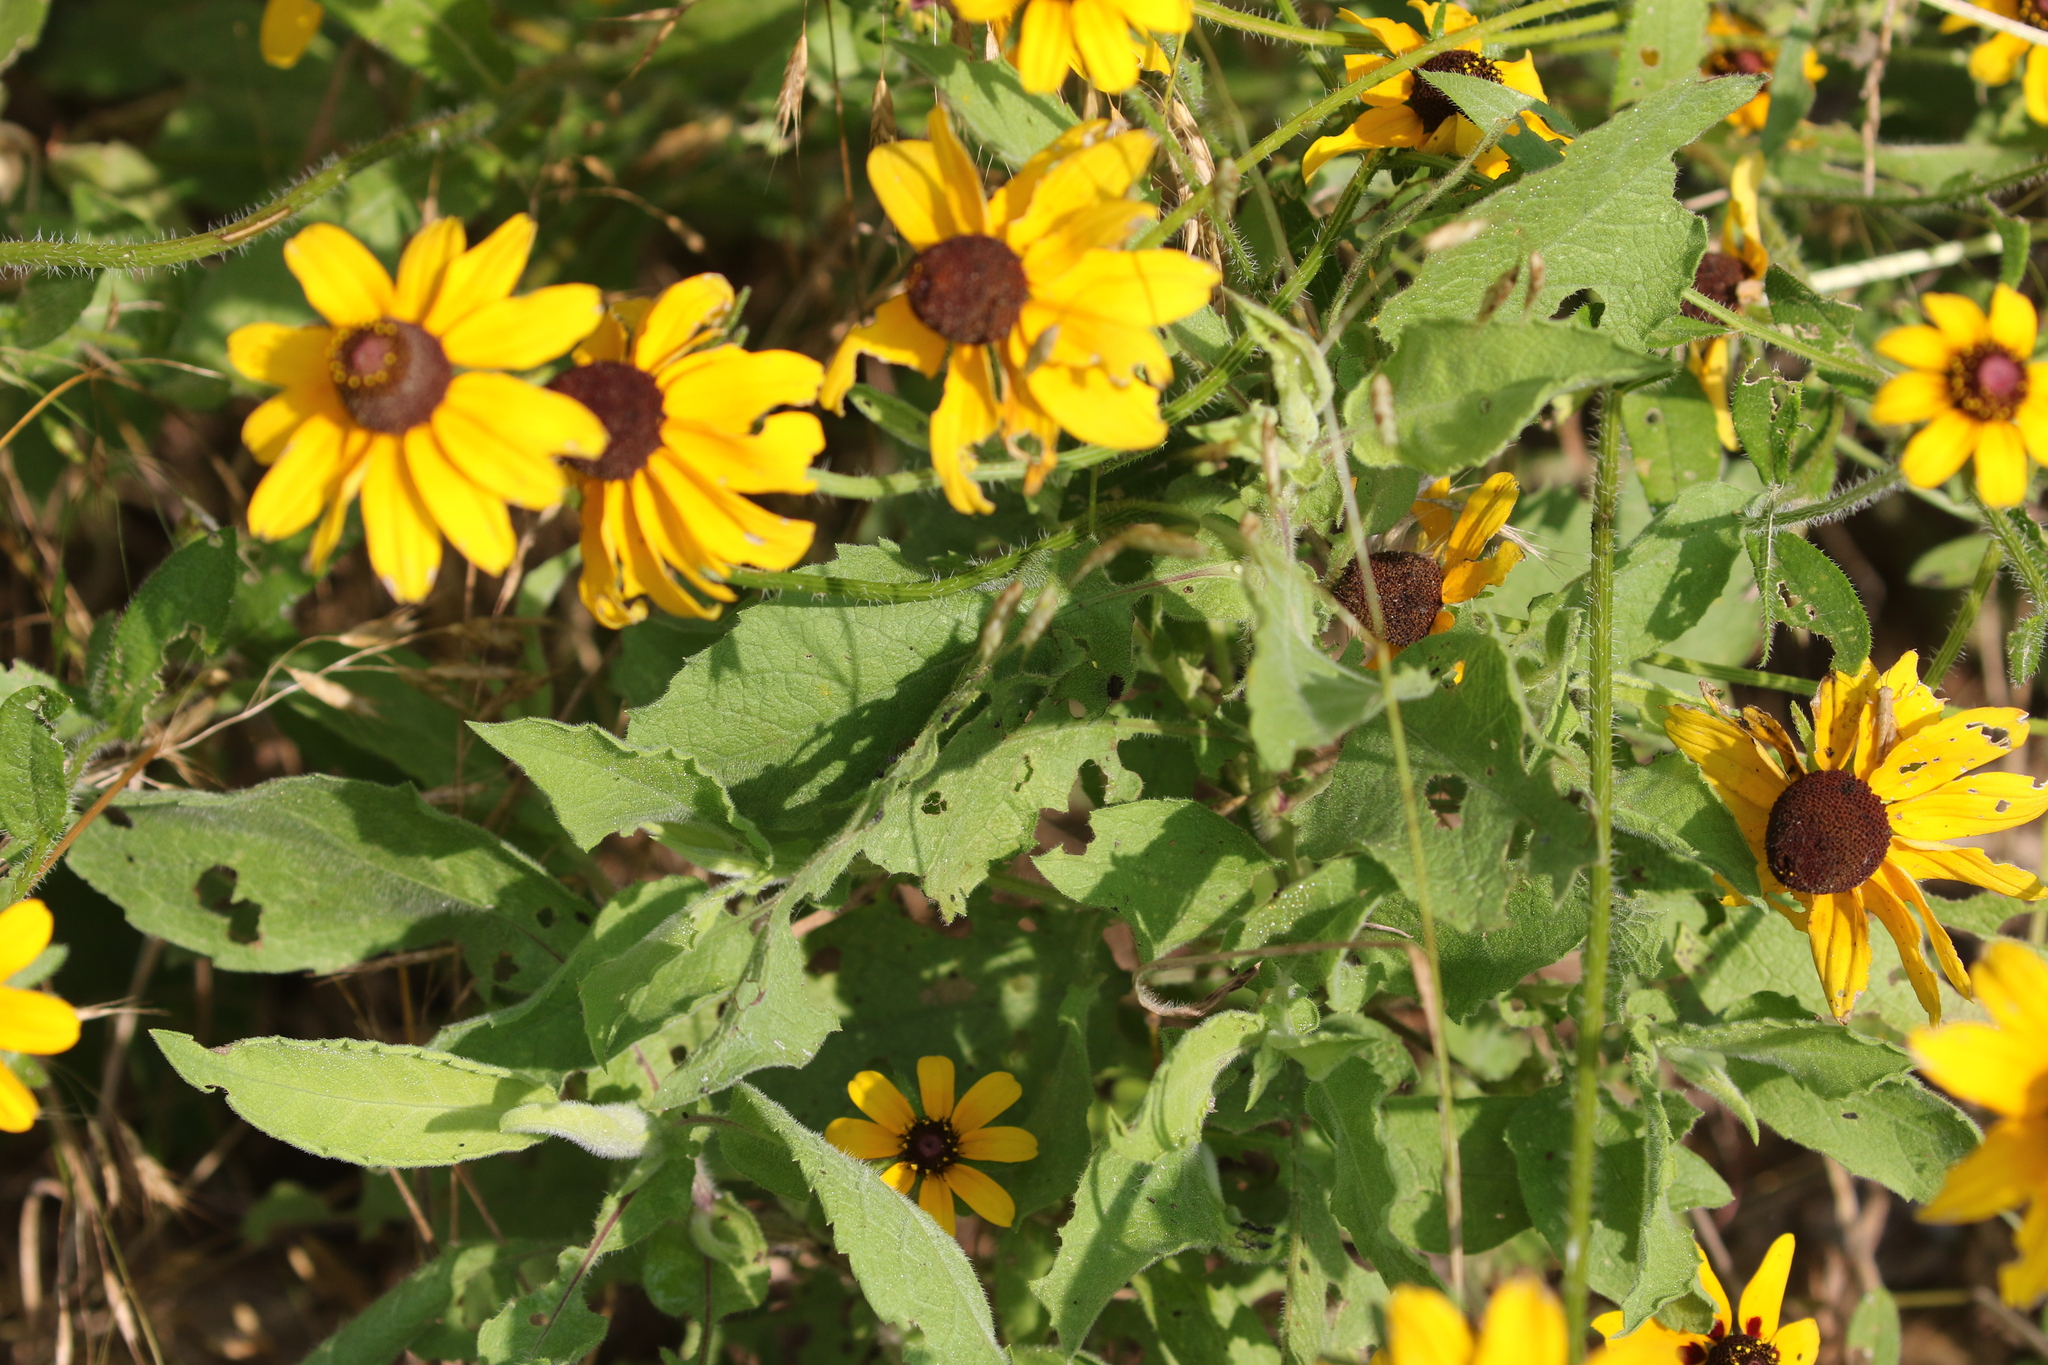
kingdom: Plantae
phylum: Tracheophyta
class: Magnoliopsida
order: Asterales
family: Asteraceae
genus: Rudbeckia
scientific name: Rudbeckia hirta
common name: Black-eyed-susan
